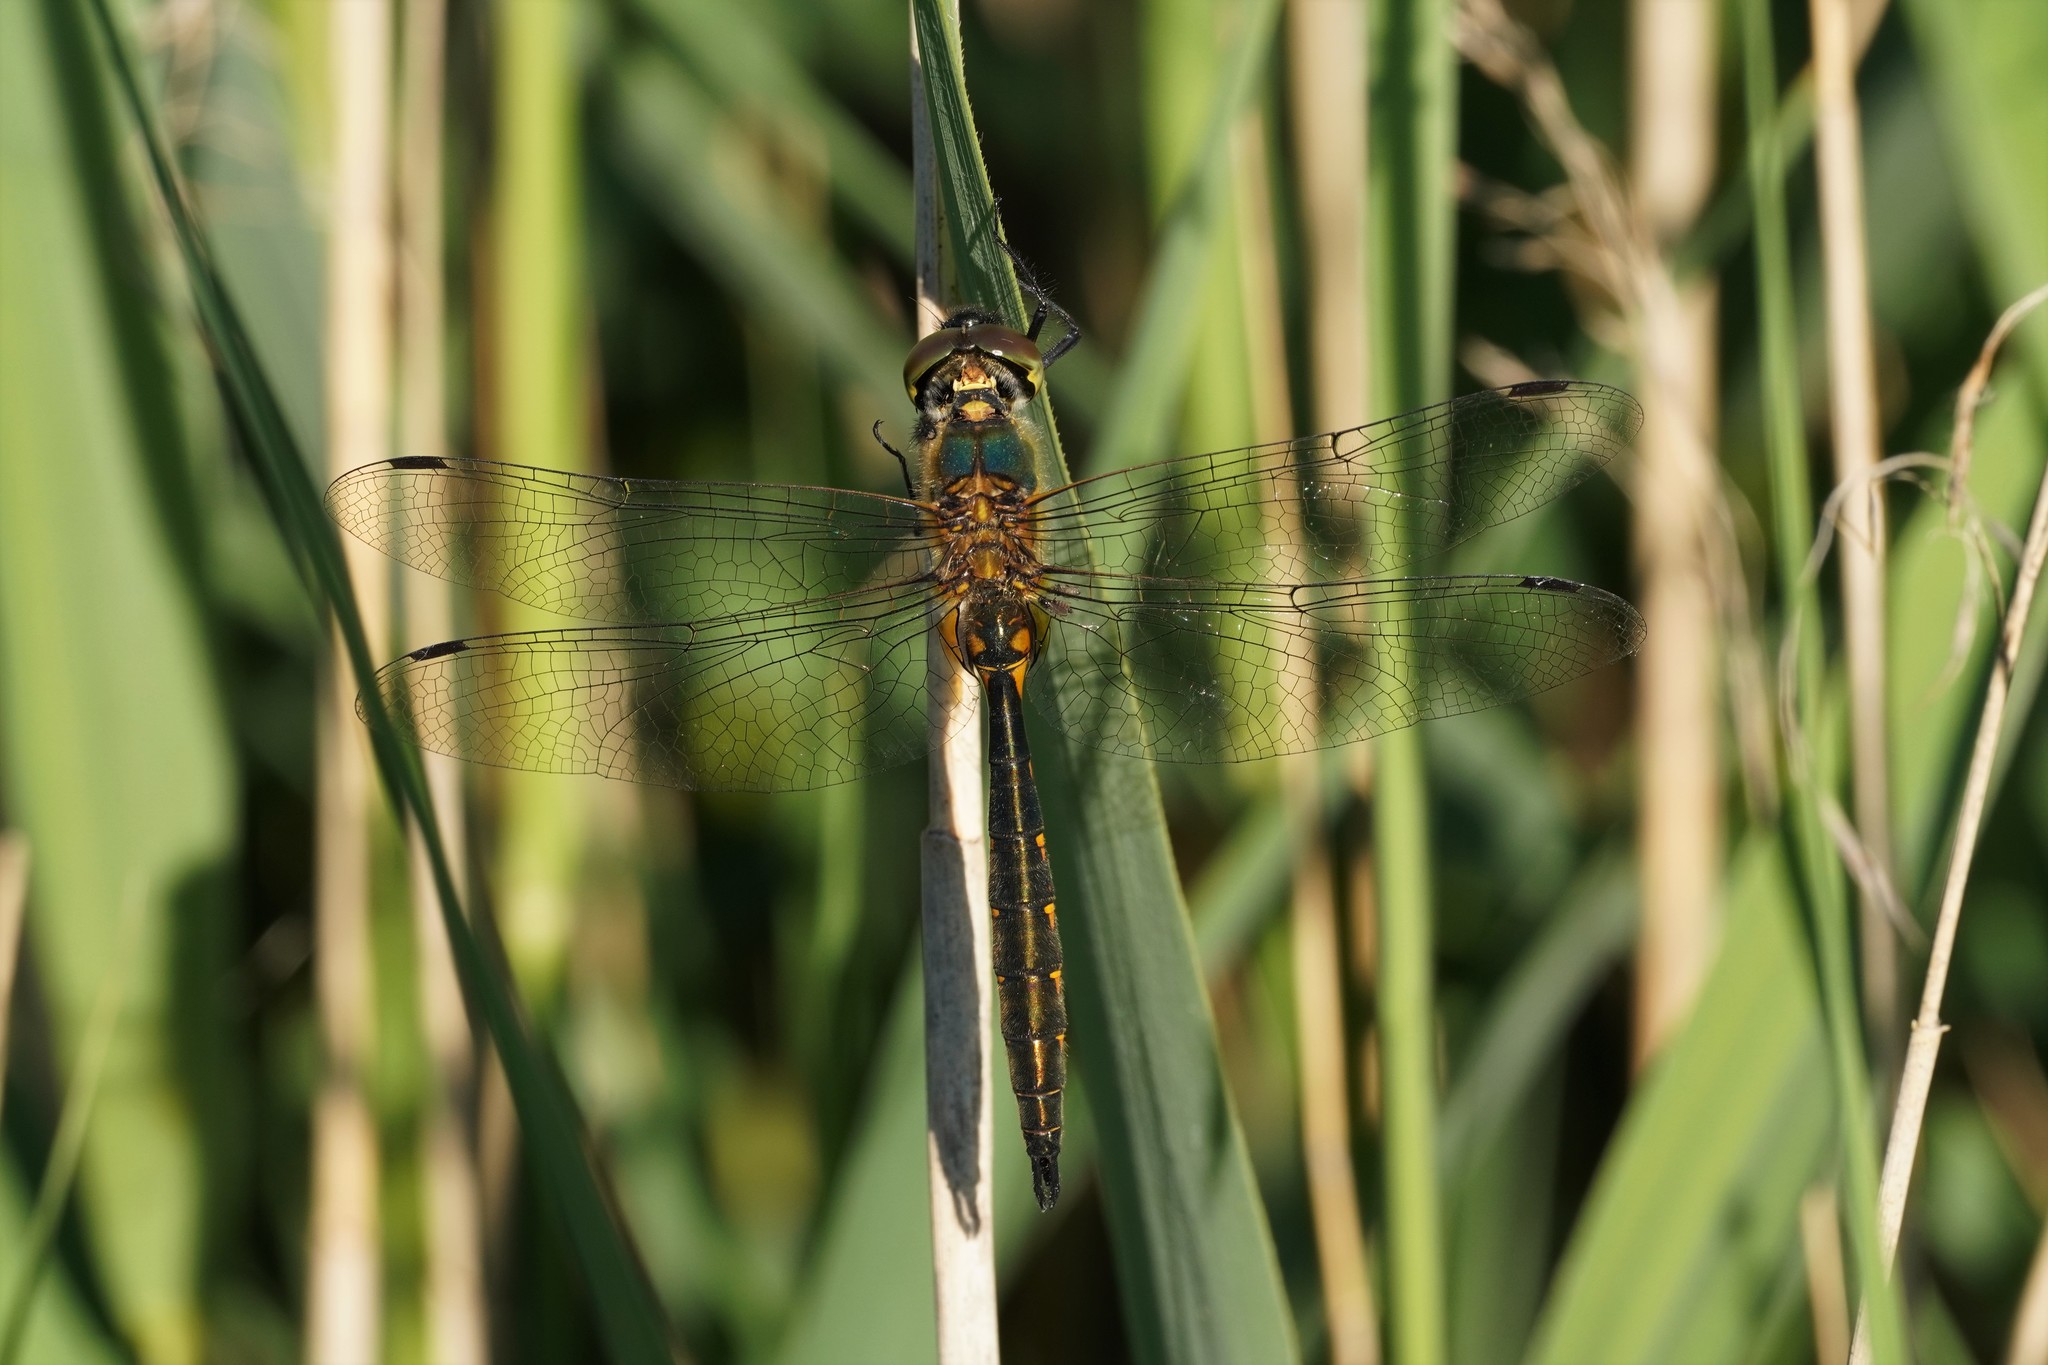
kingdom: Animalia
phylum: Arthropoda
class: Insecta
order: Odonata
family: Corduliidae
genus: Somatochlora
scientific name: Somatochlora flavomaculata
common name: Yellow-spotted emerald
